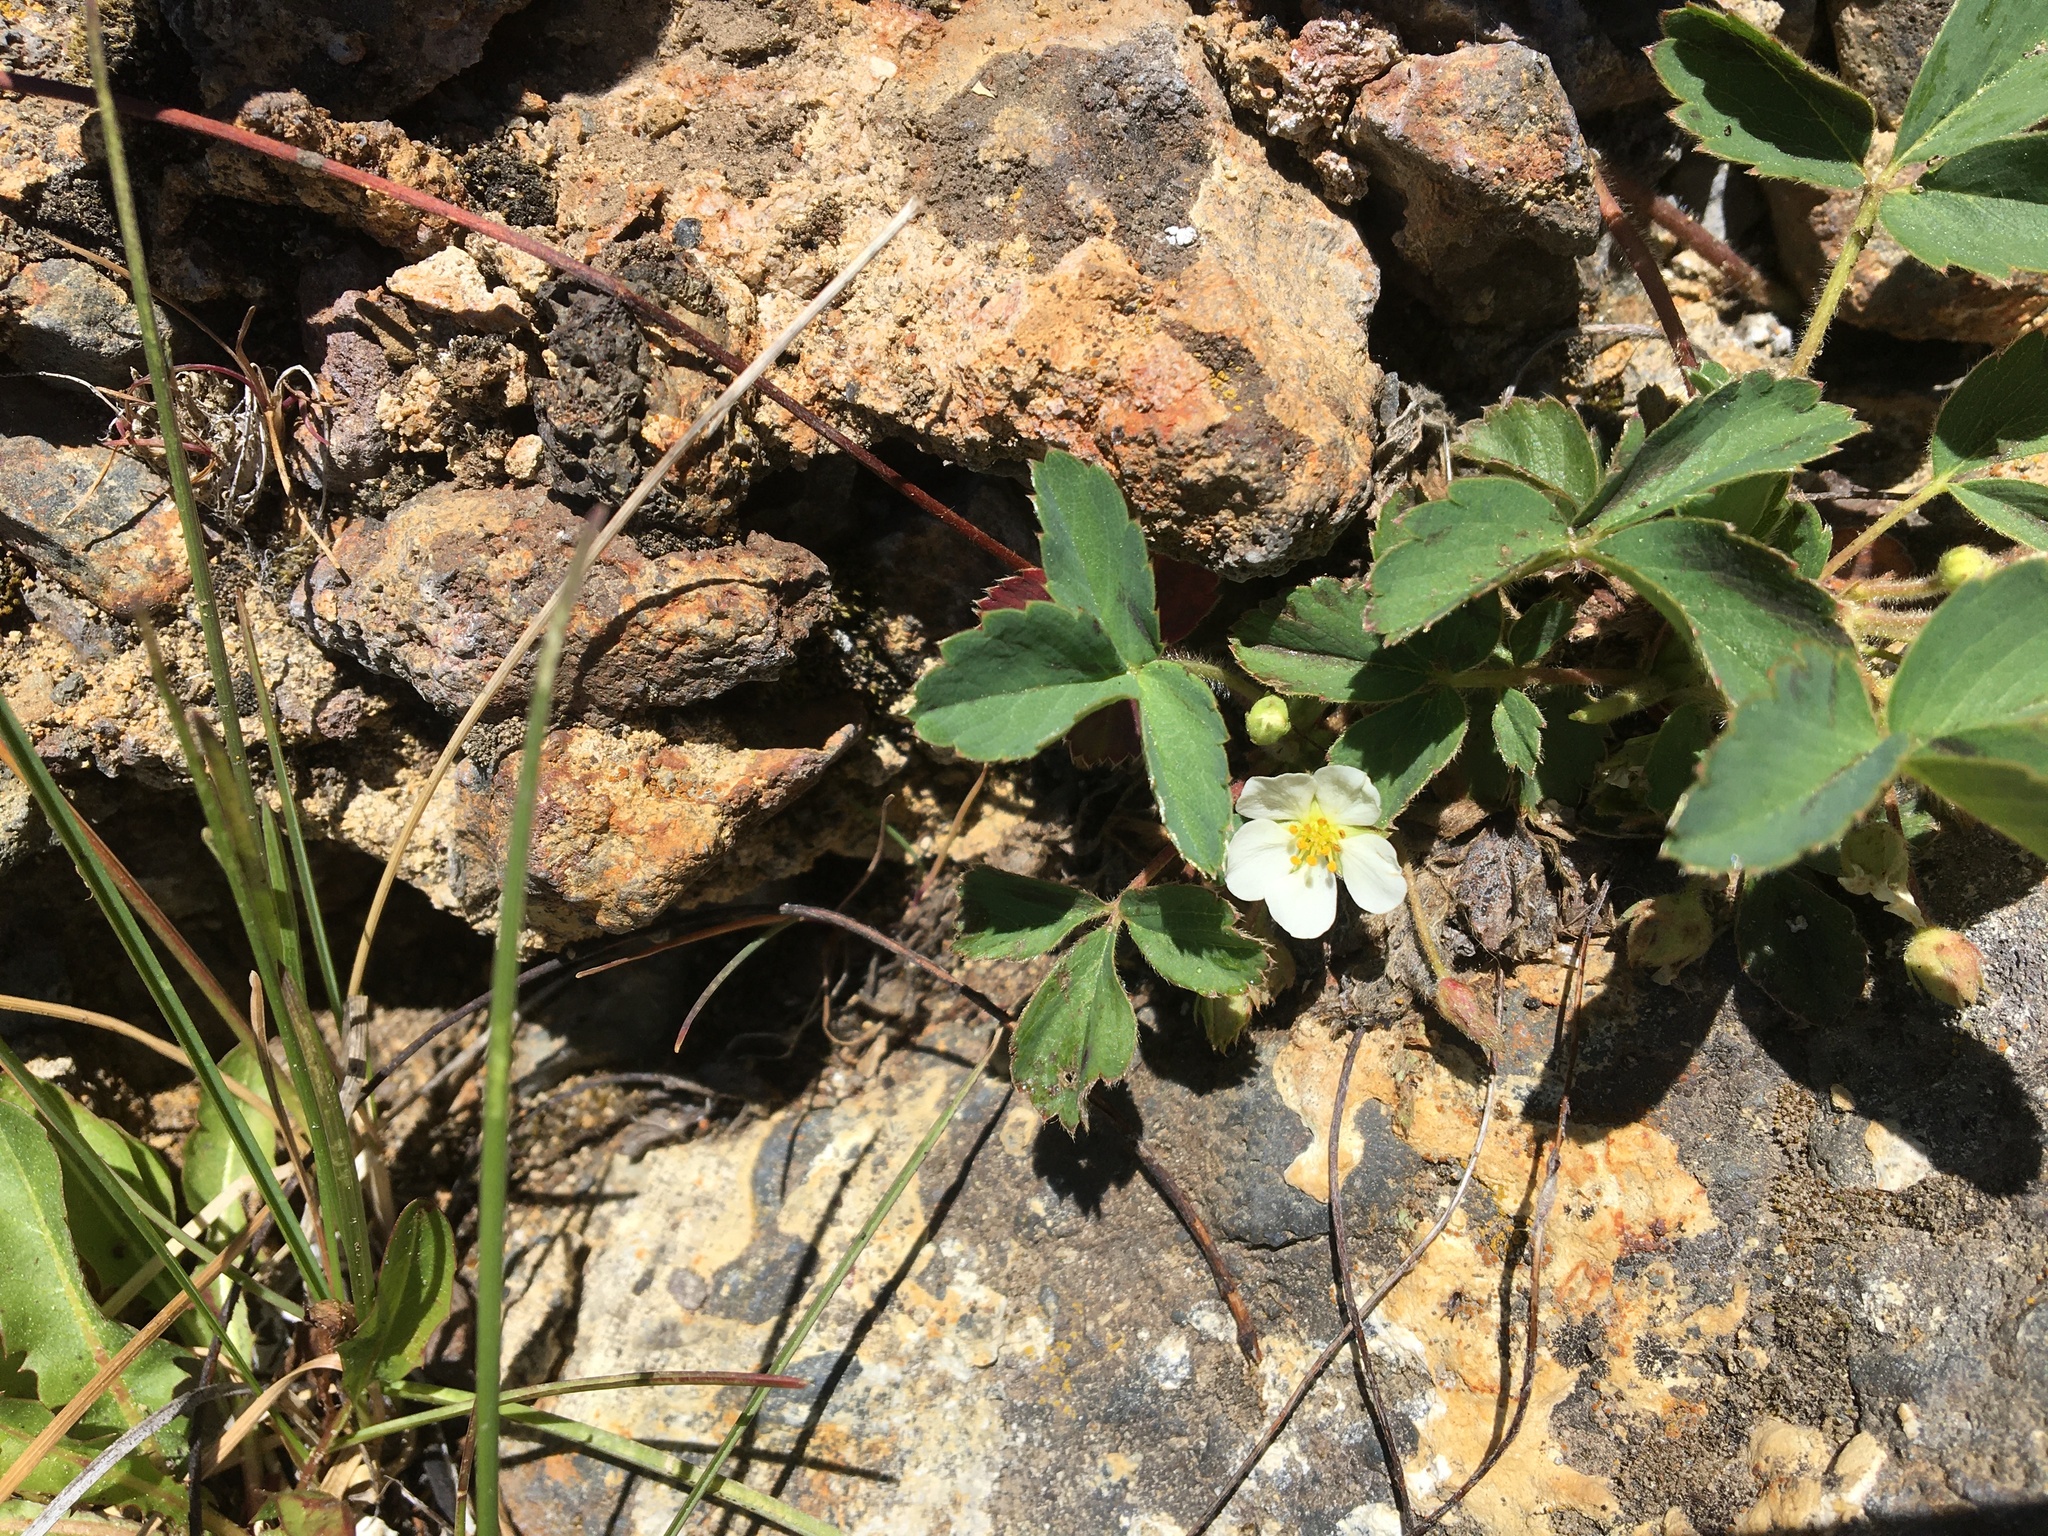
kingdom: Plantae
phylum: Tracheophyta
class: Magnoliopsida
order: Rosales
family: Rosaceae
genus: Fragaria
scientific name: Fragaria virginiana
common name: Thickleaved wild strawberry
